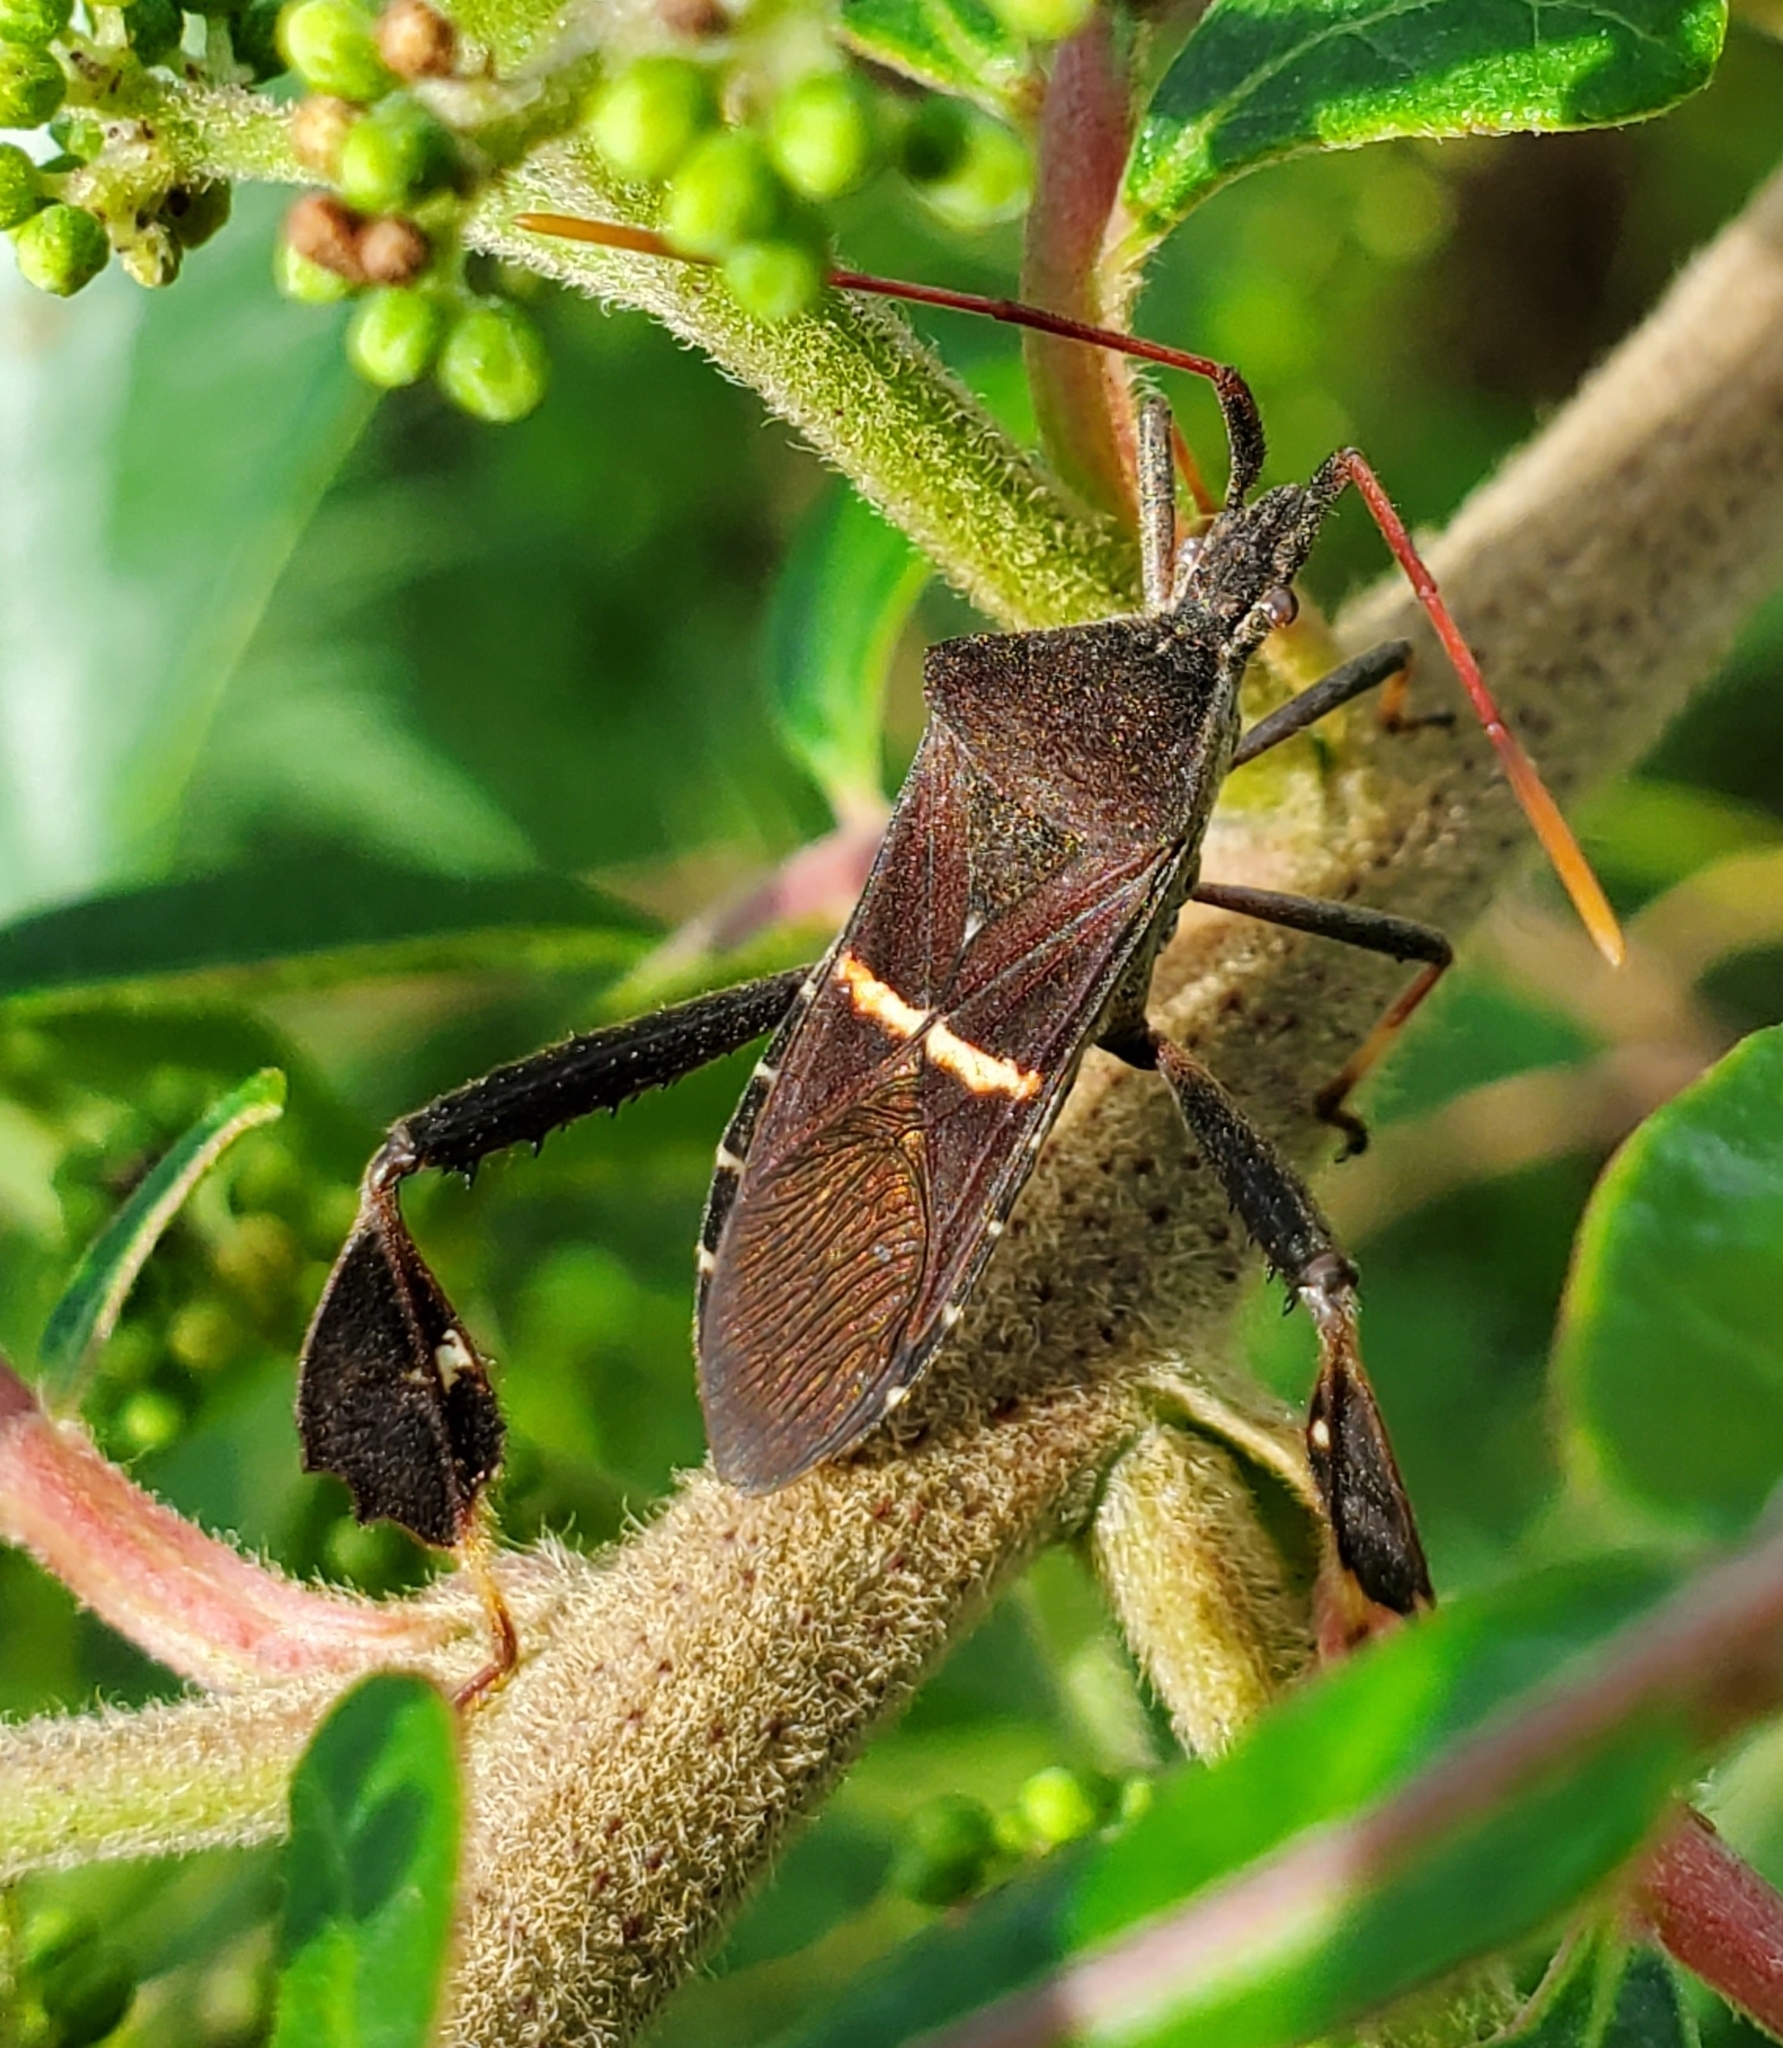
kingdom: Animalia
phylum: Arthropoda
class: Insecta
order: Hemiptera
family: Coreidae
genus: Leptoglossus
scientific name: Leptoglossus phyllopus
